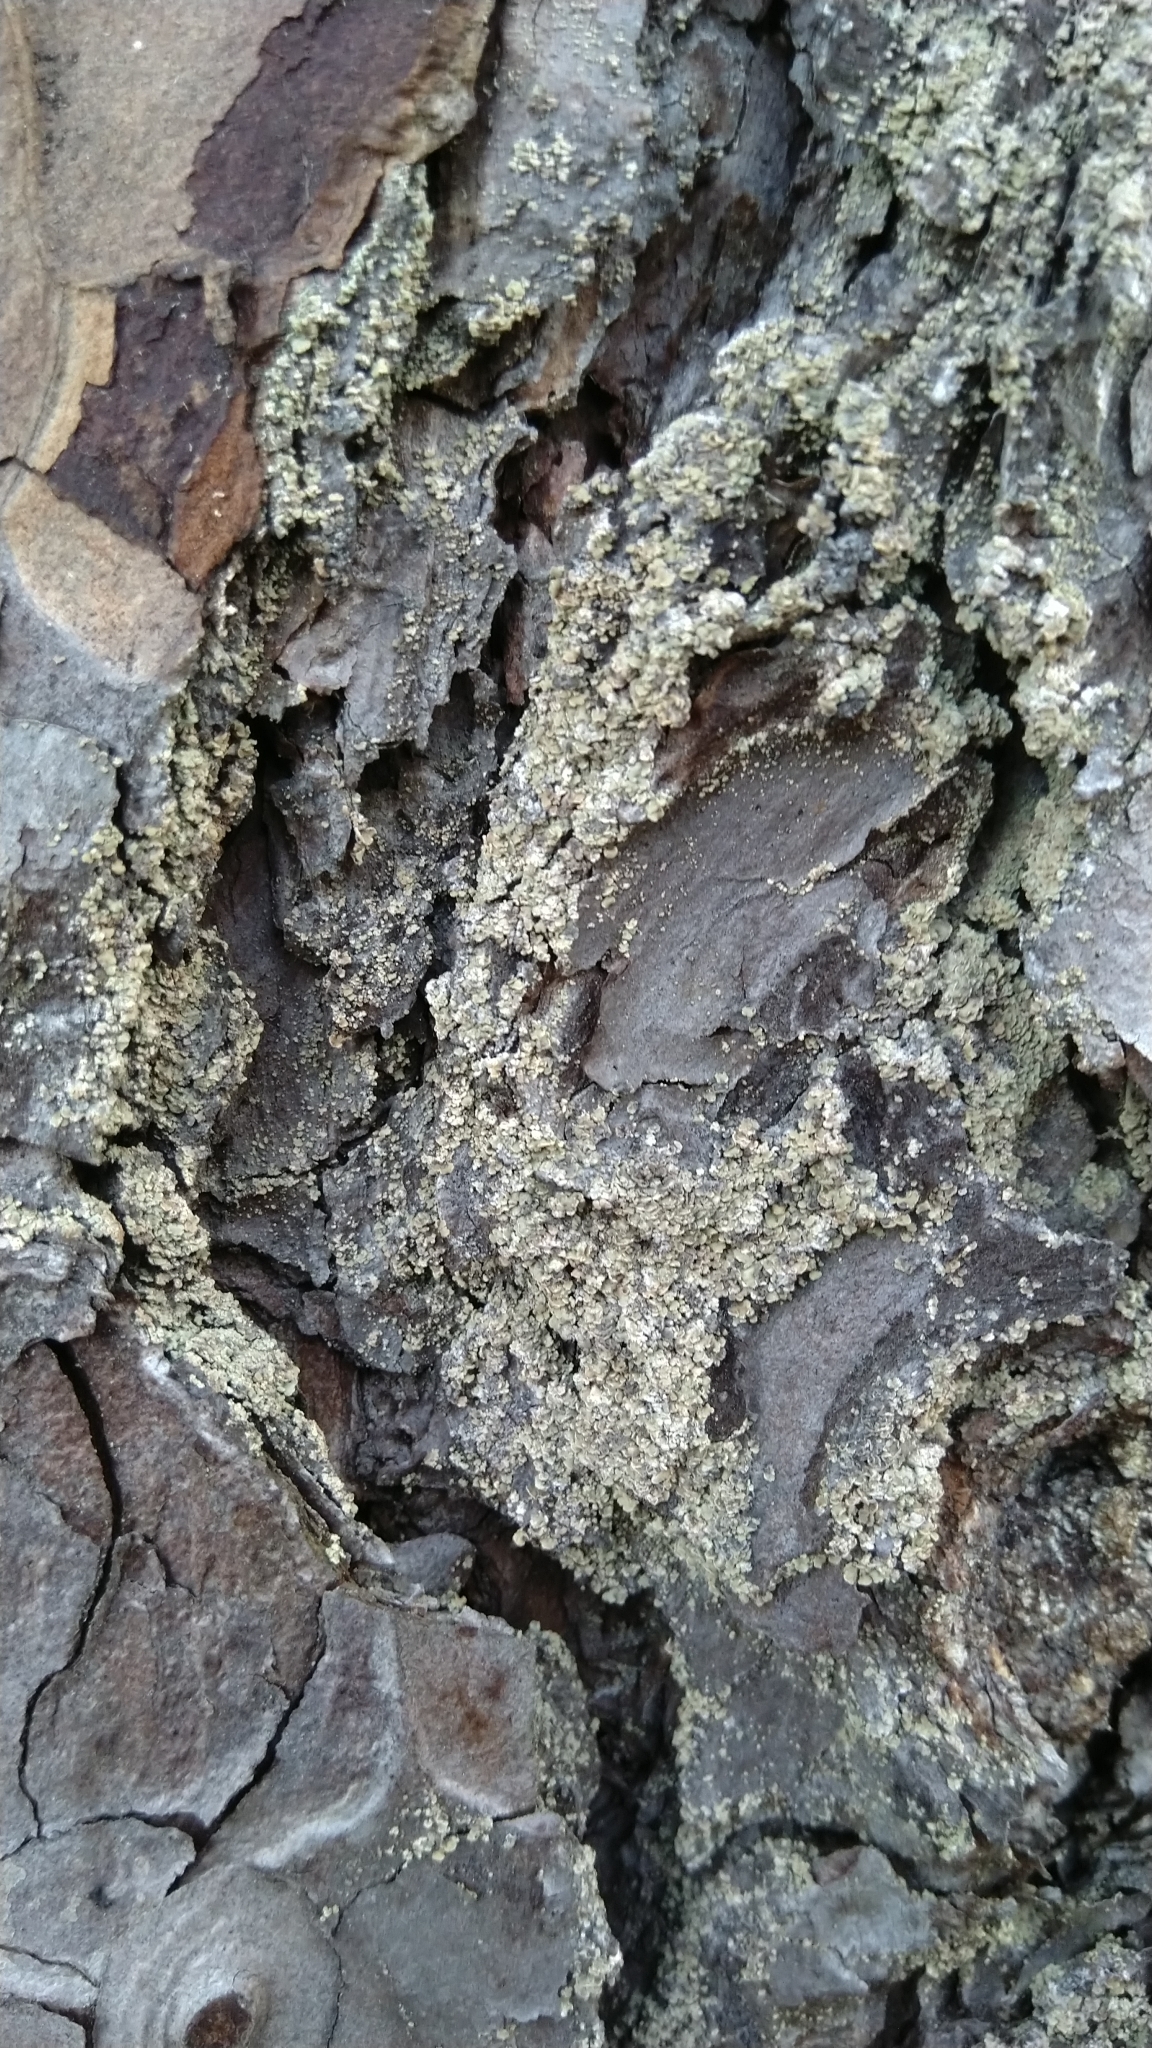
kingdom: Fungi
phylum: Ascomycota
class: Lecanoromycetes
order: Umbilicariales
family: Ophioparmaceae
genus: Hypocenomyce
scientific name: Hypocenomyce scalaris
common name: Common clam lichen
